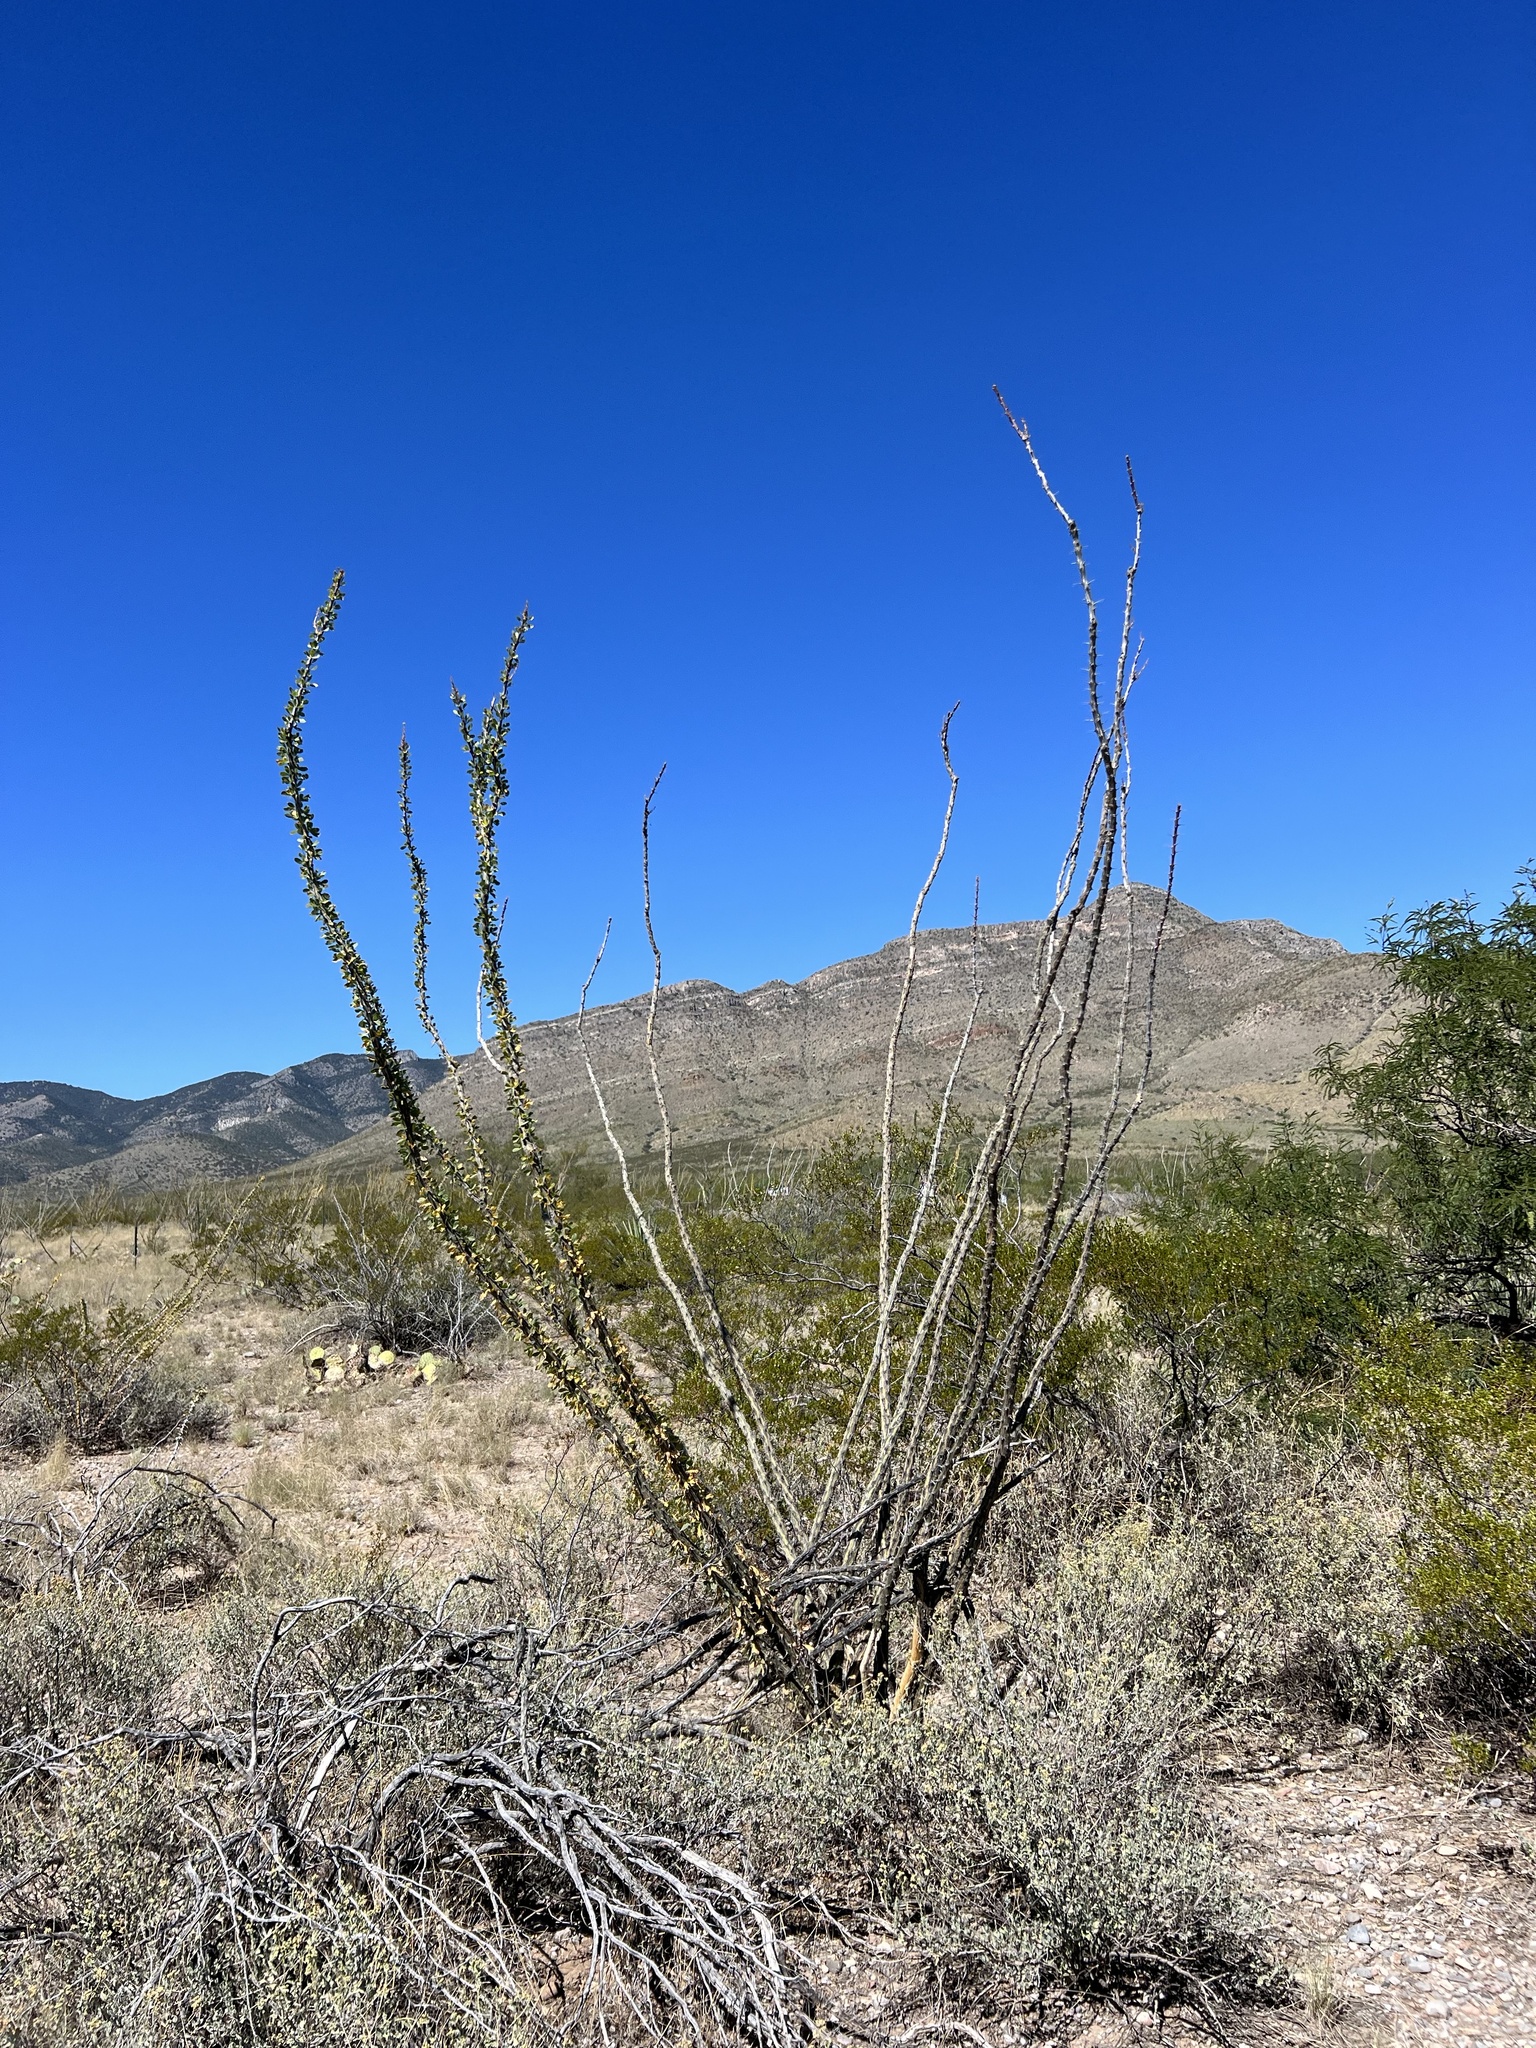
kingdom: Plantae
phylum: Tracheophyta
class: Magnoliopsida
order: Ericales
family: Fouquieriaceae
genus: Fouquieria
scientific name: Fouquieria splendens
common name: Vine-cactus
